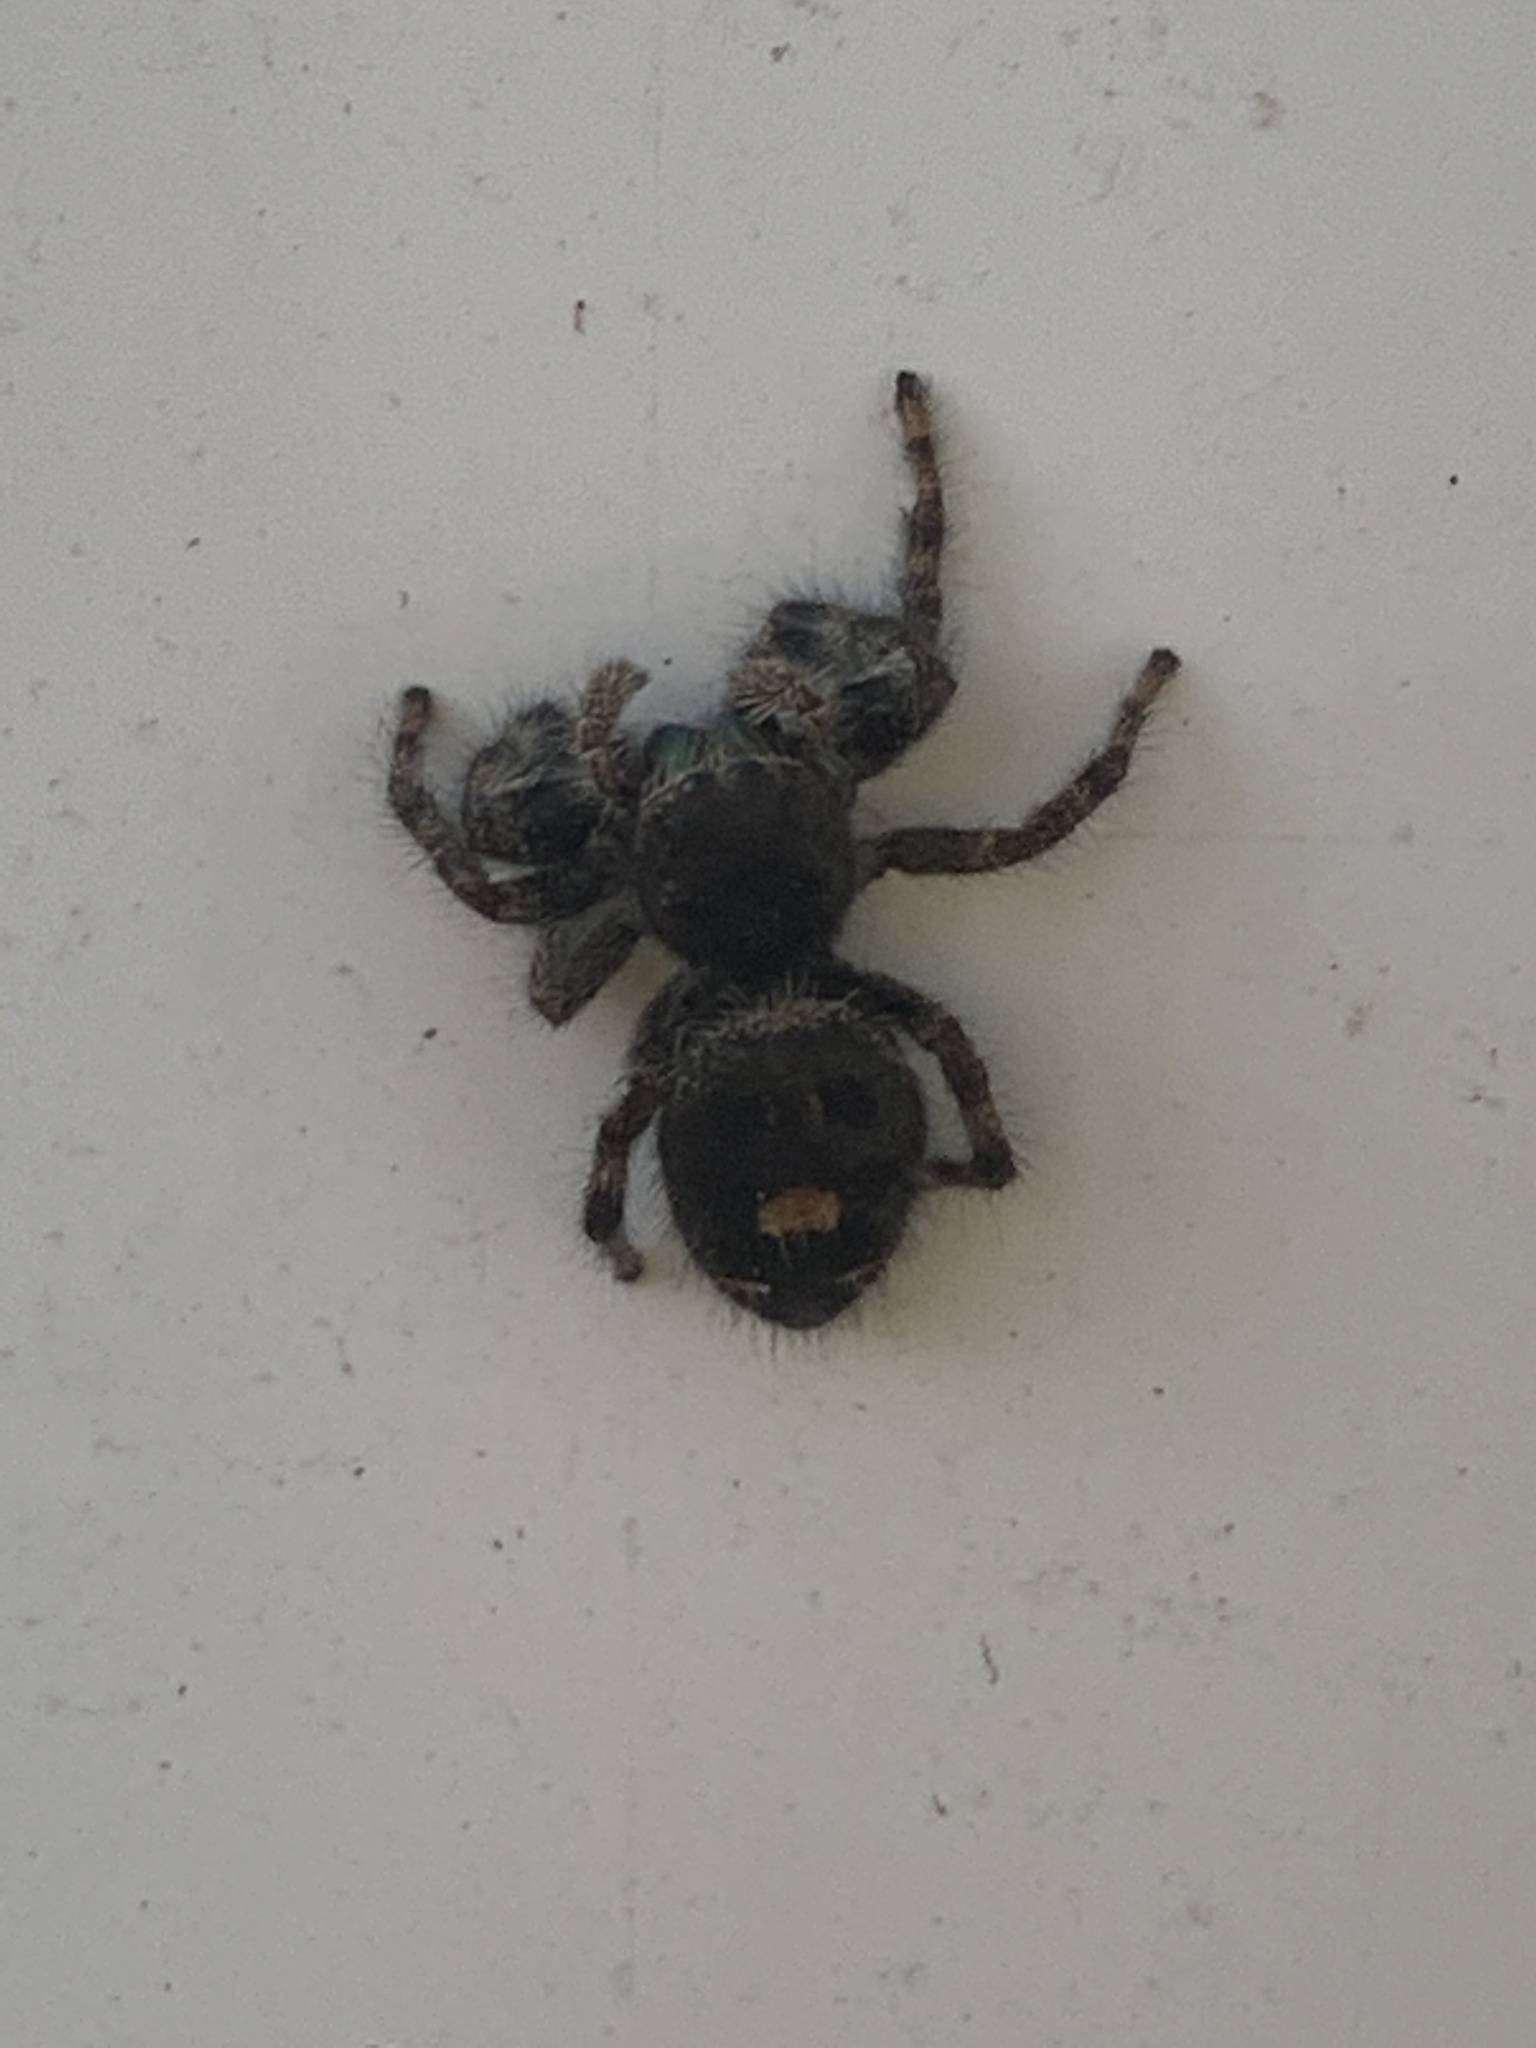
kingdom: Animalia
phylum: Arthropoda
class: Arachnida
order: Araneae
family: Salticidae
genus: Phidippus
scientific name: Phidippus audax
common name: Bold jumper
